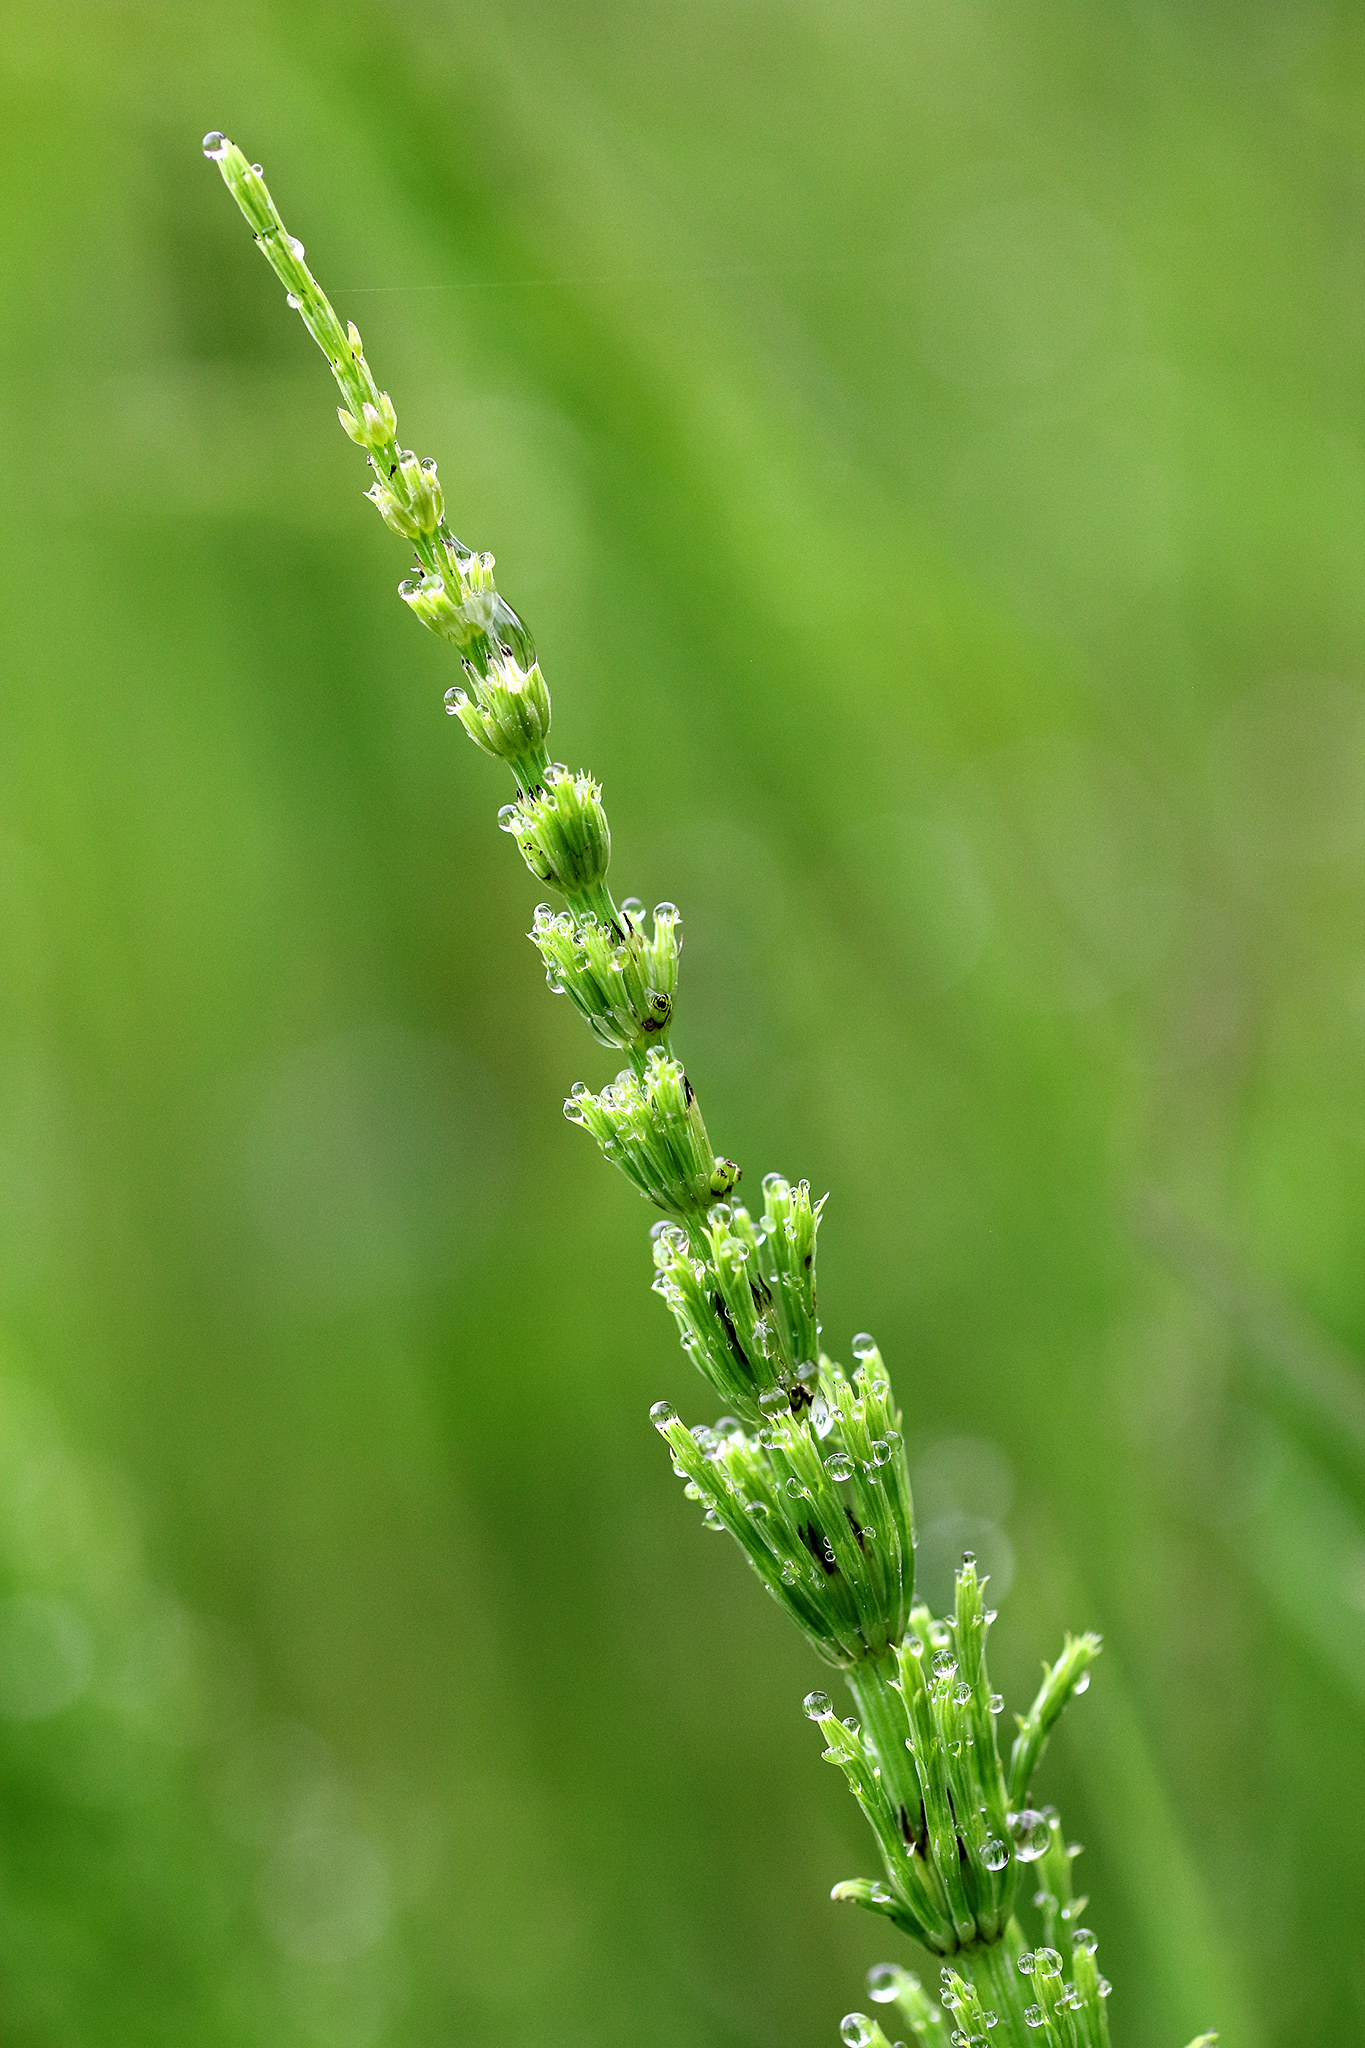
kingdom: Plantae
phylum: Tracheophyta
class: Polypodiopsida
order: Equisetales
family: Equisetaceae
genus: Equisetum
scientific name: Equisetum arvense
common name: Field horsetail
